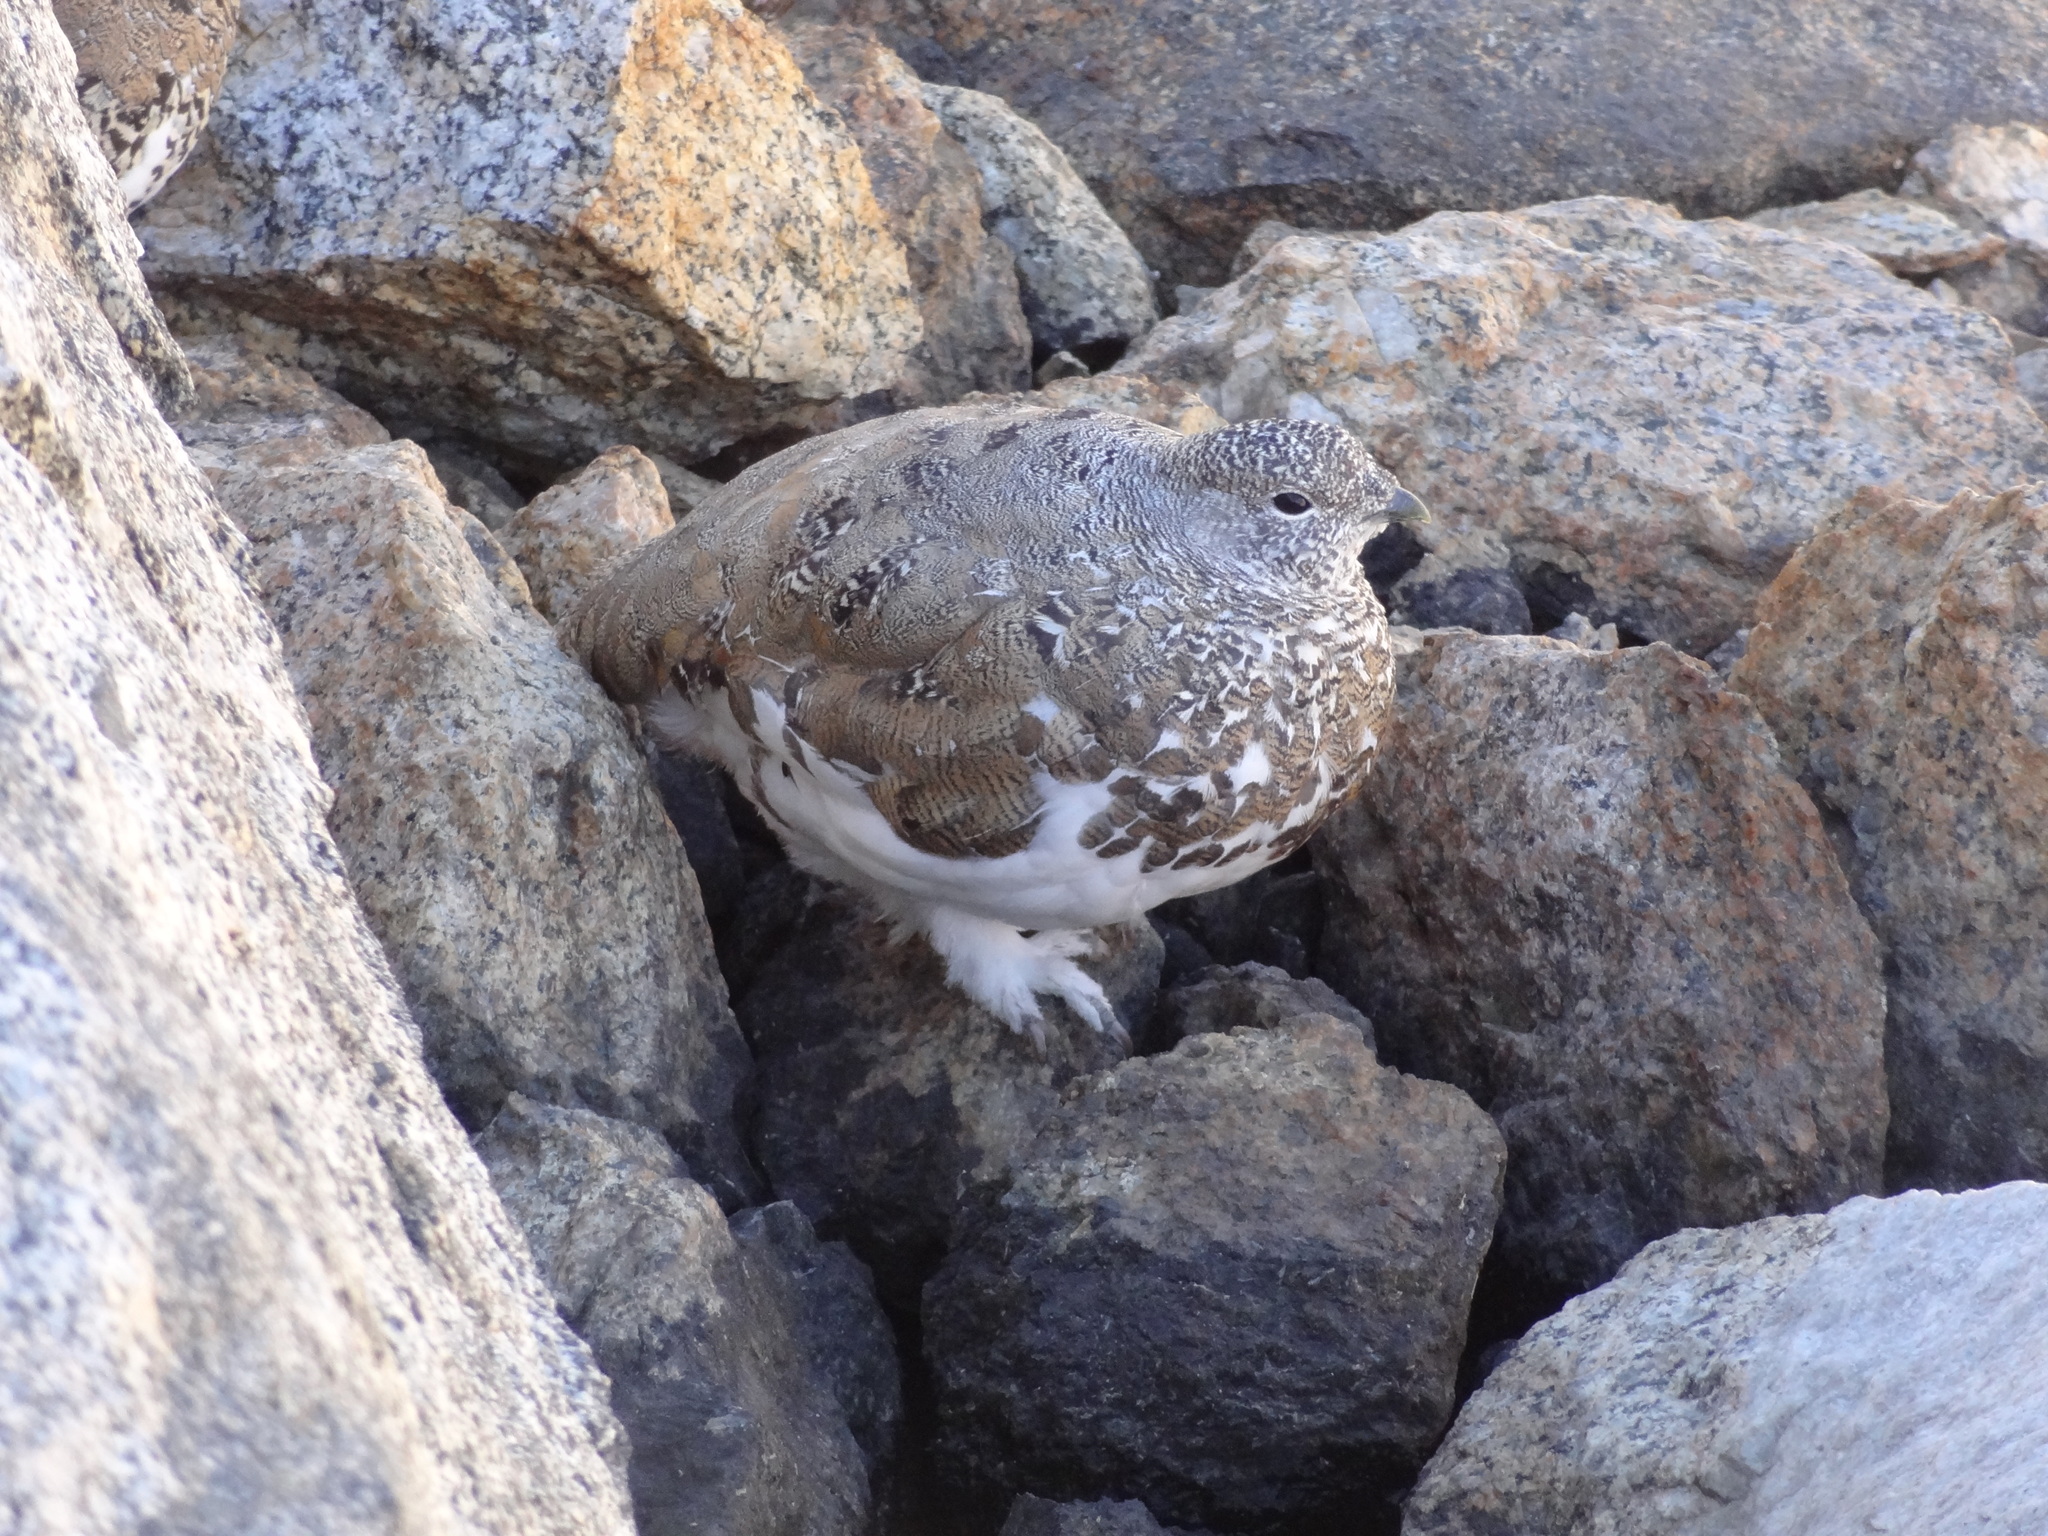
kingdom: Animalia
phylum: Chordata
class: Aves
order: Galliformes
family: Phasianidae
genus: Lagopus
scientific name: Lagopus leucura
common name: White-tailed ptarmigan
